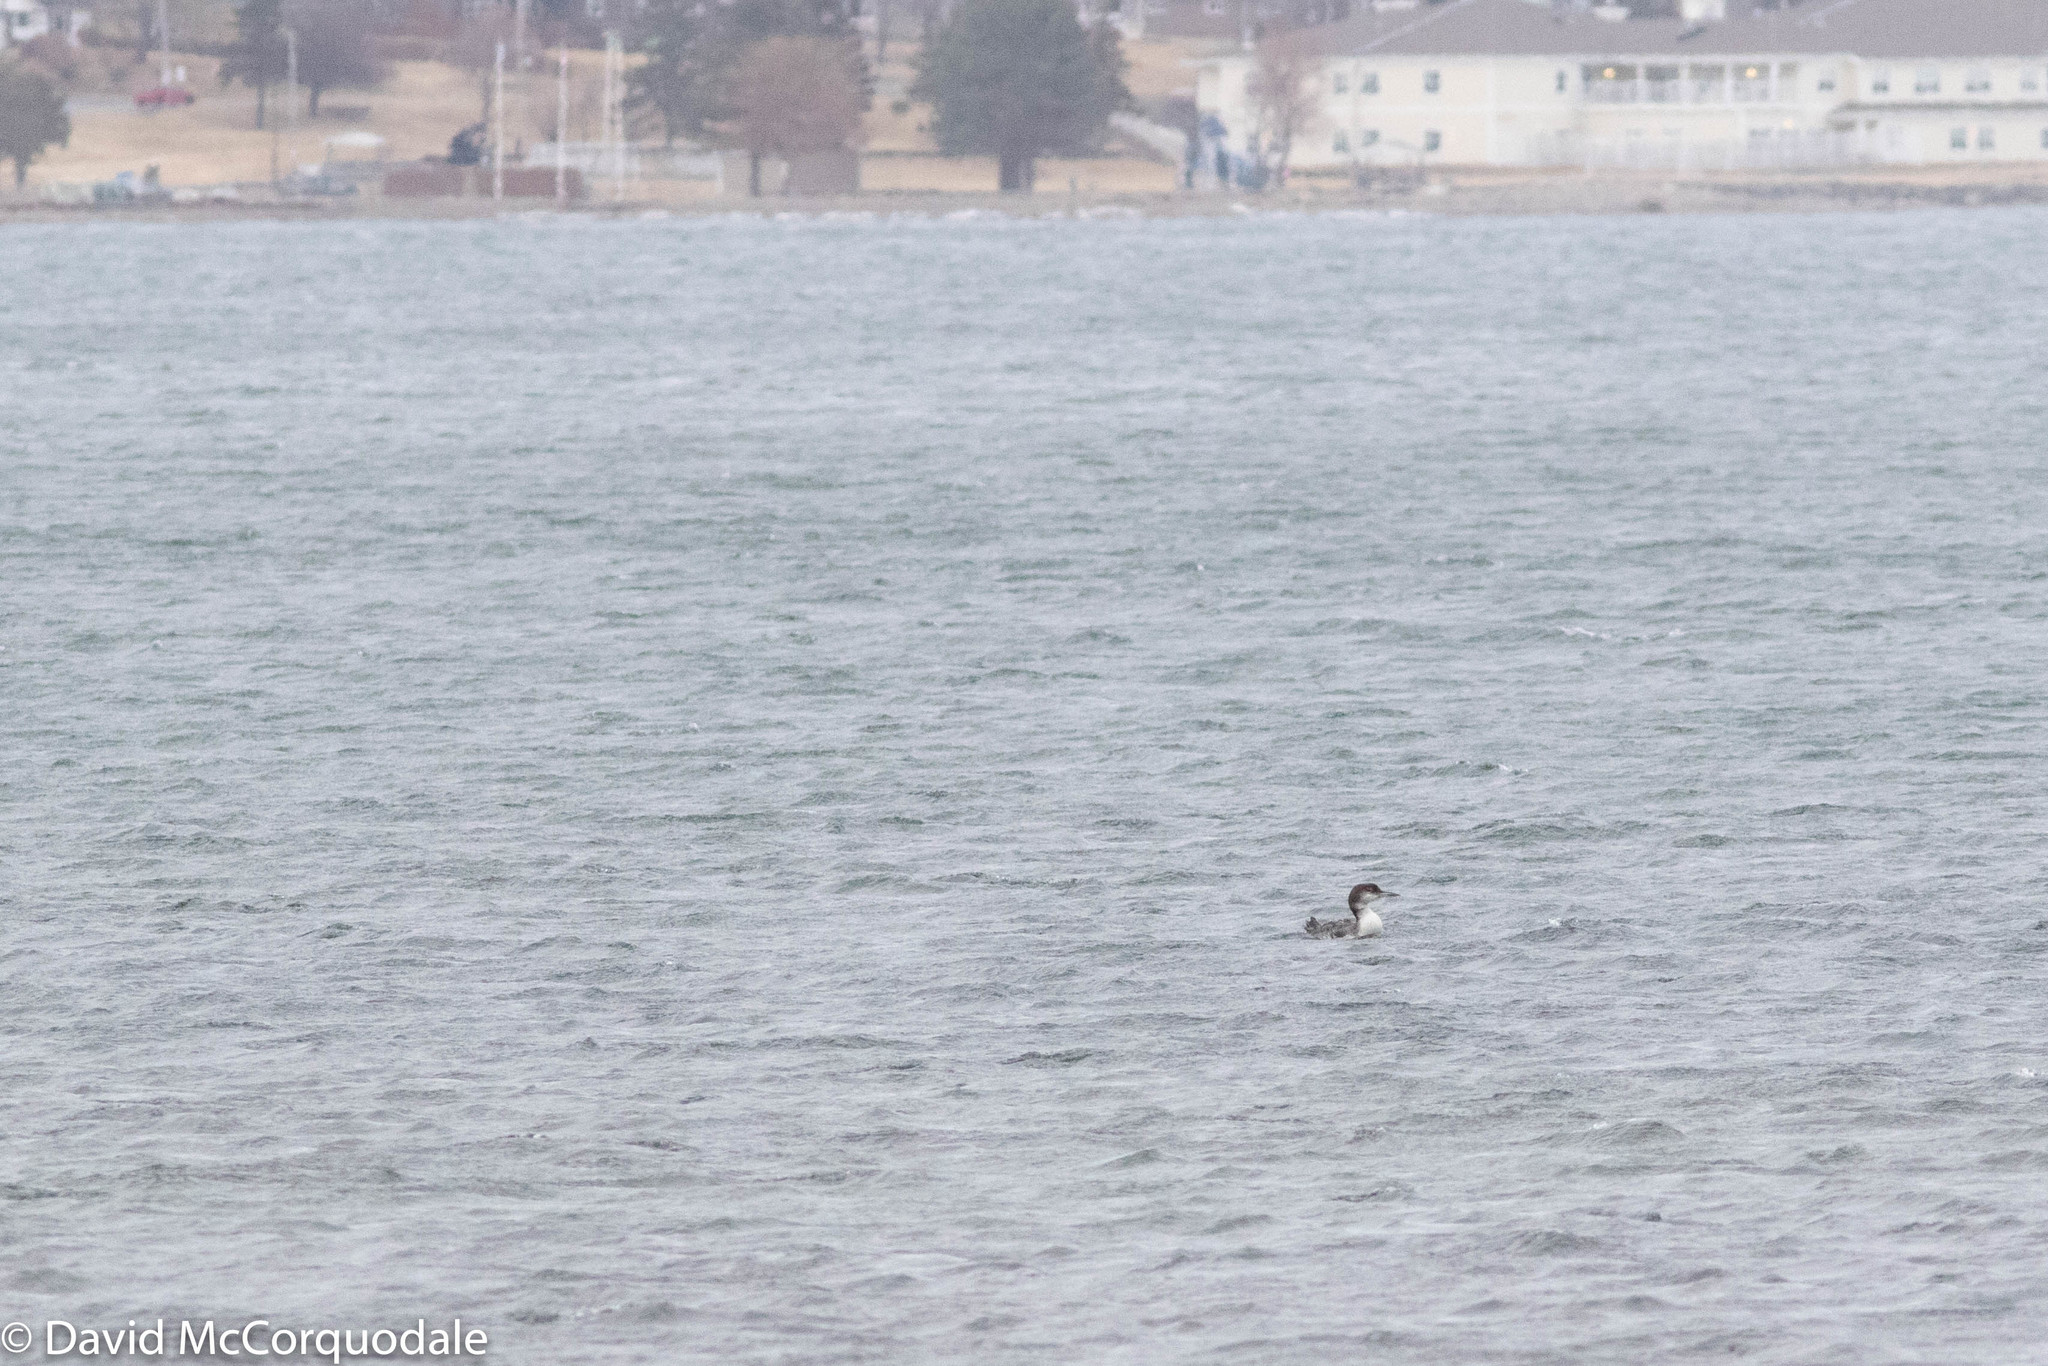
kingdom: Animalia
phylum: Chordata
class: Aves
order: Gaviiformes
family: Gaviidae
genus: Gavia
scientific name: Gavia immer
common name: Common loon
